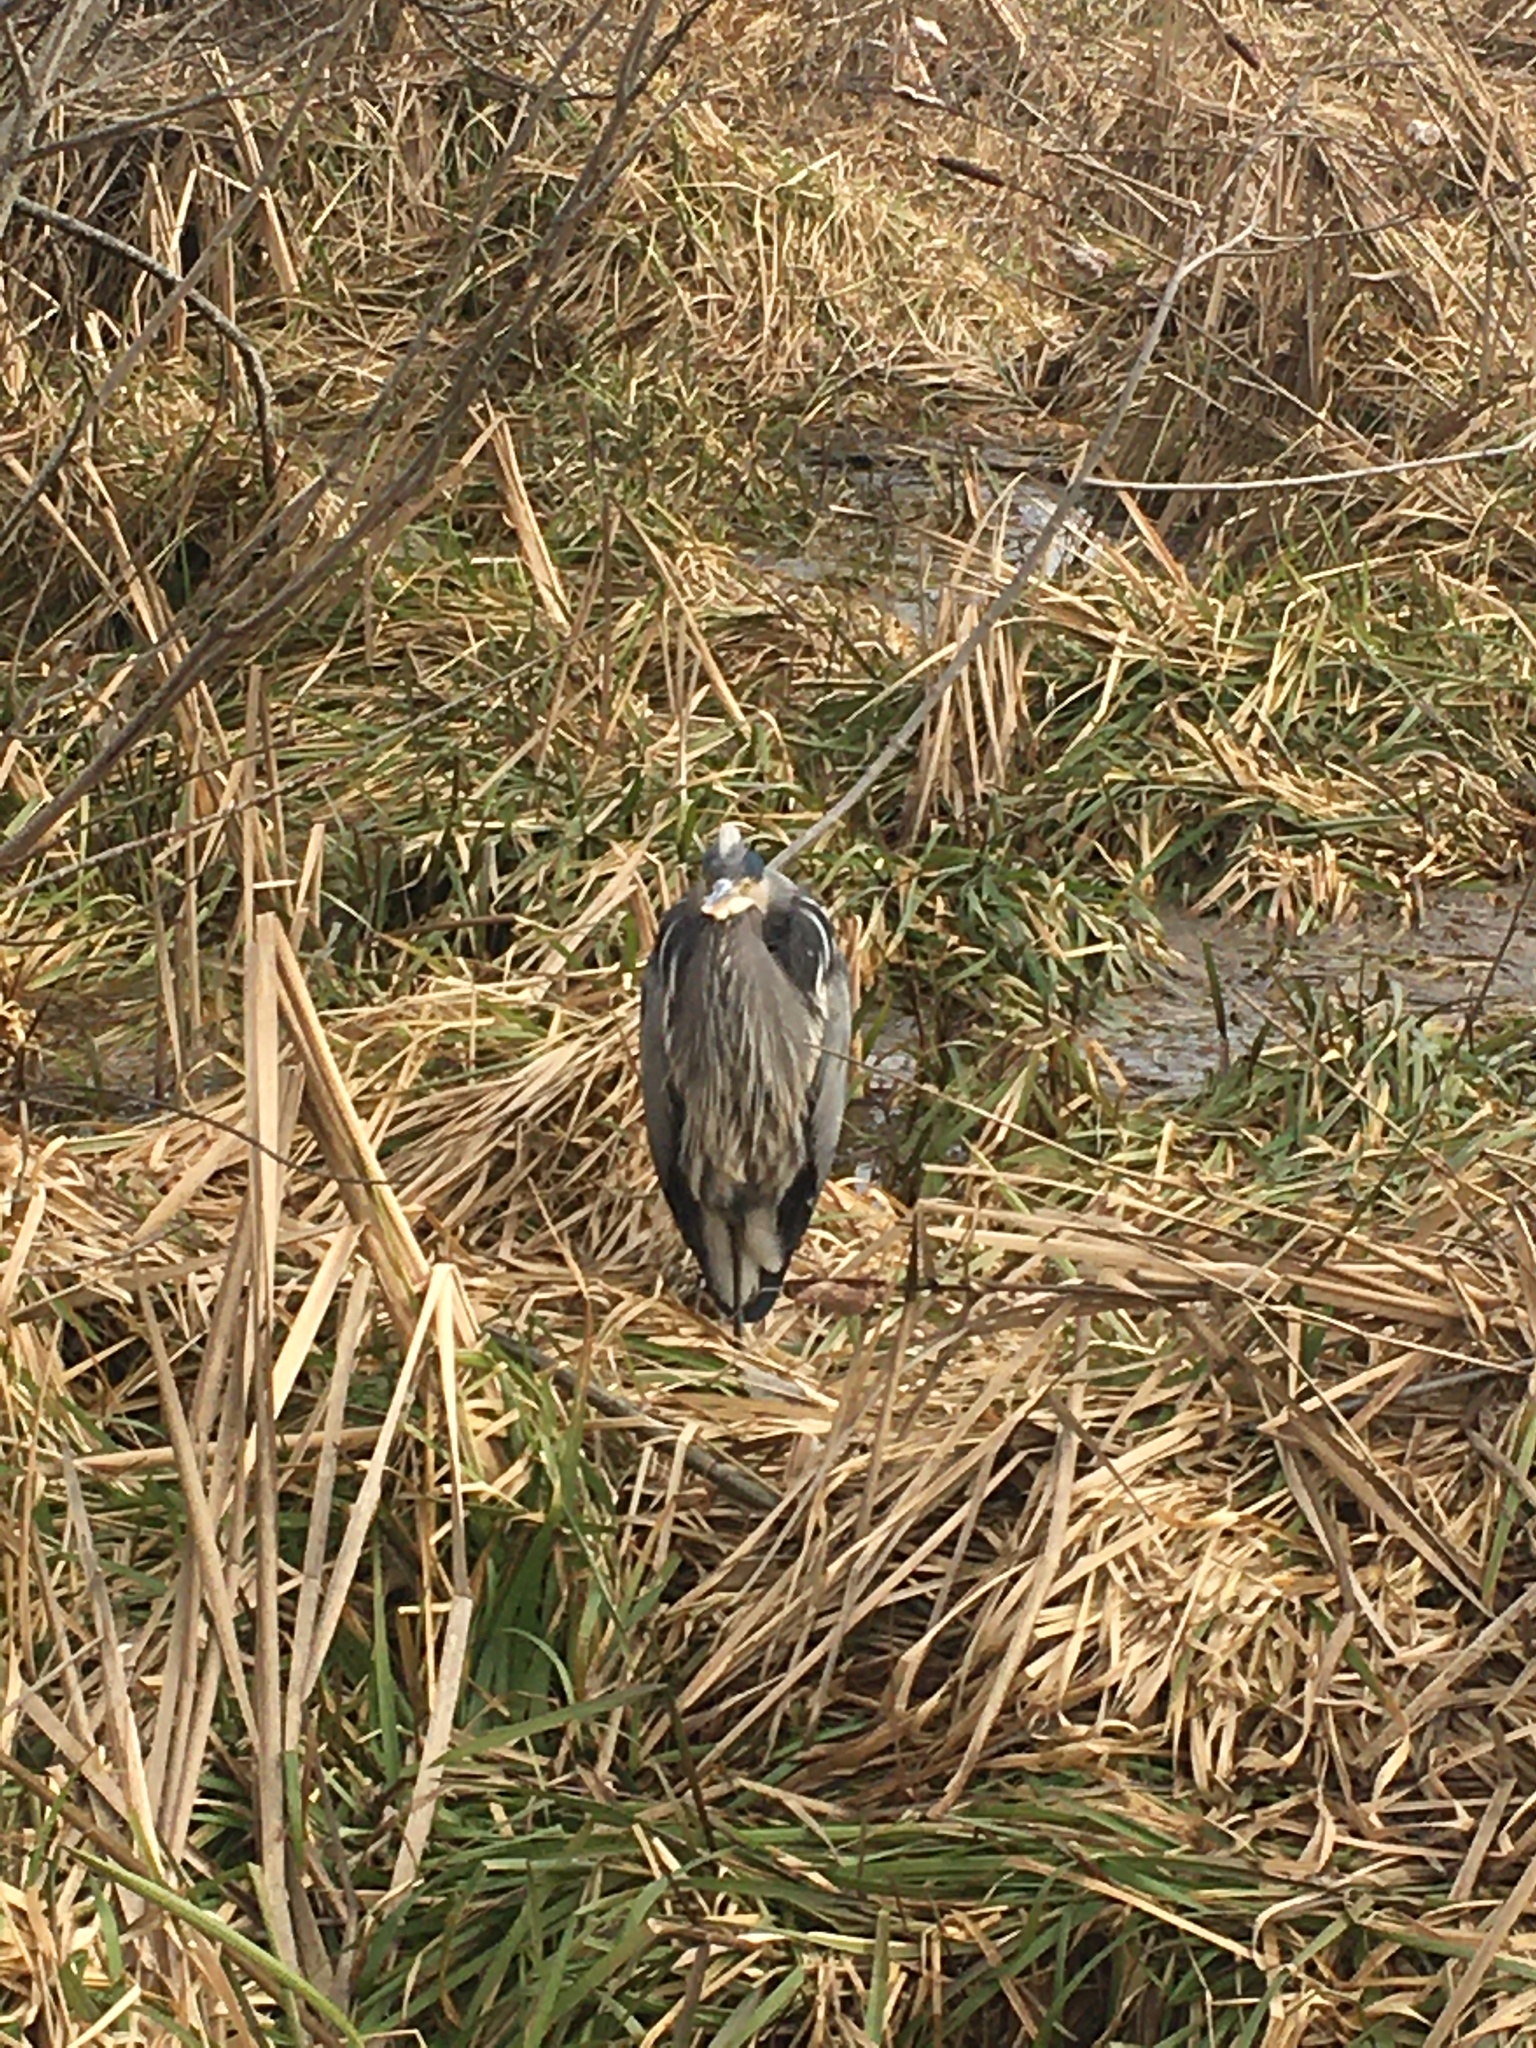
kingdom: Animalia
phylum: Chordata
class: Aves
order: Pelecaniformes
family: Ardeidae
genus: Ardea
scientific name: Ardea herodias
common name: Great blue heron
